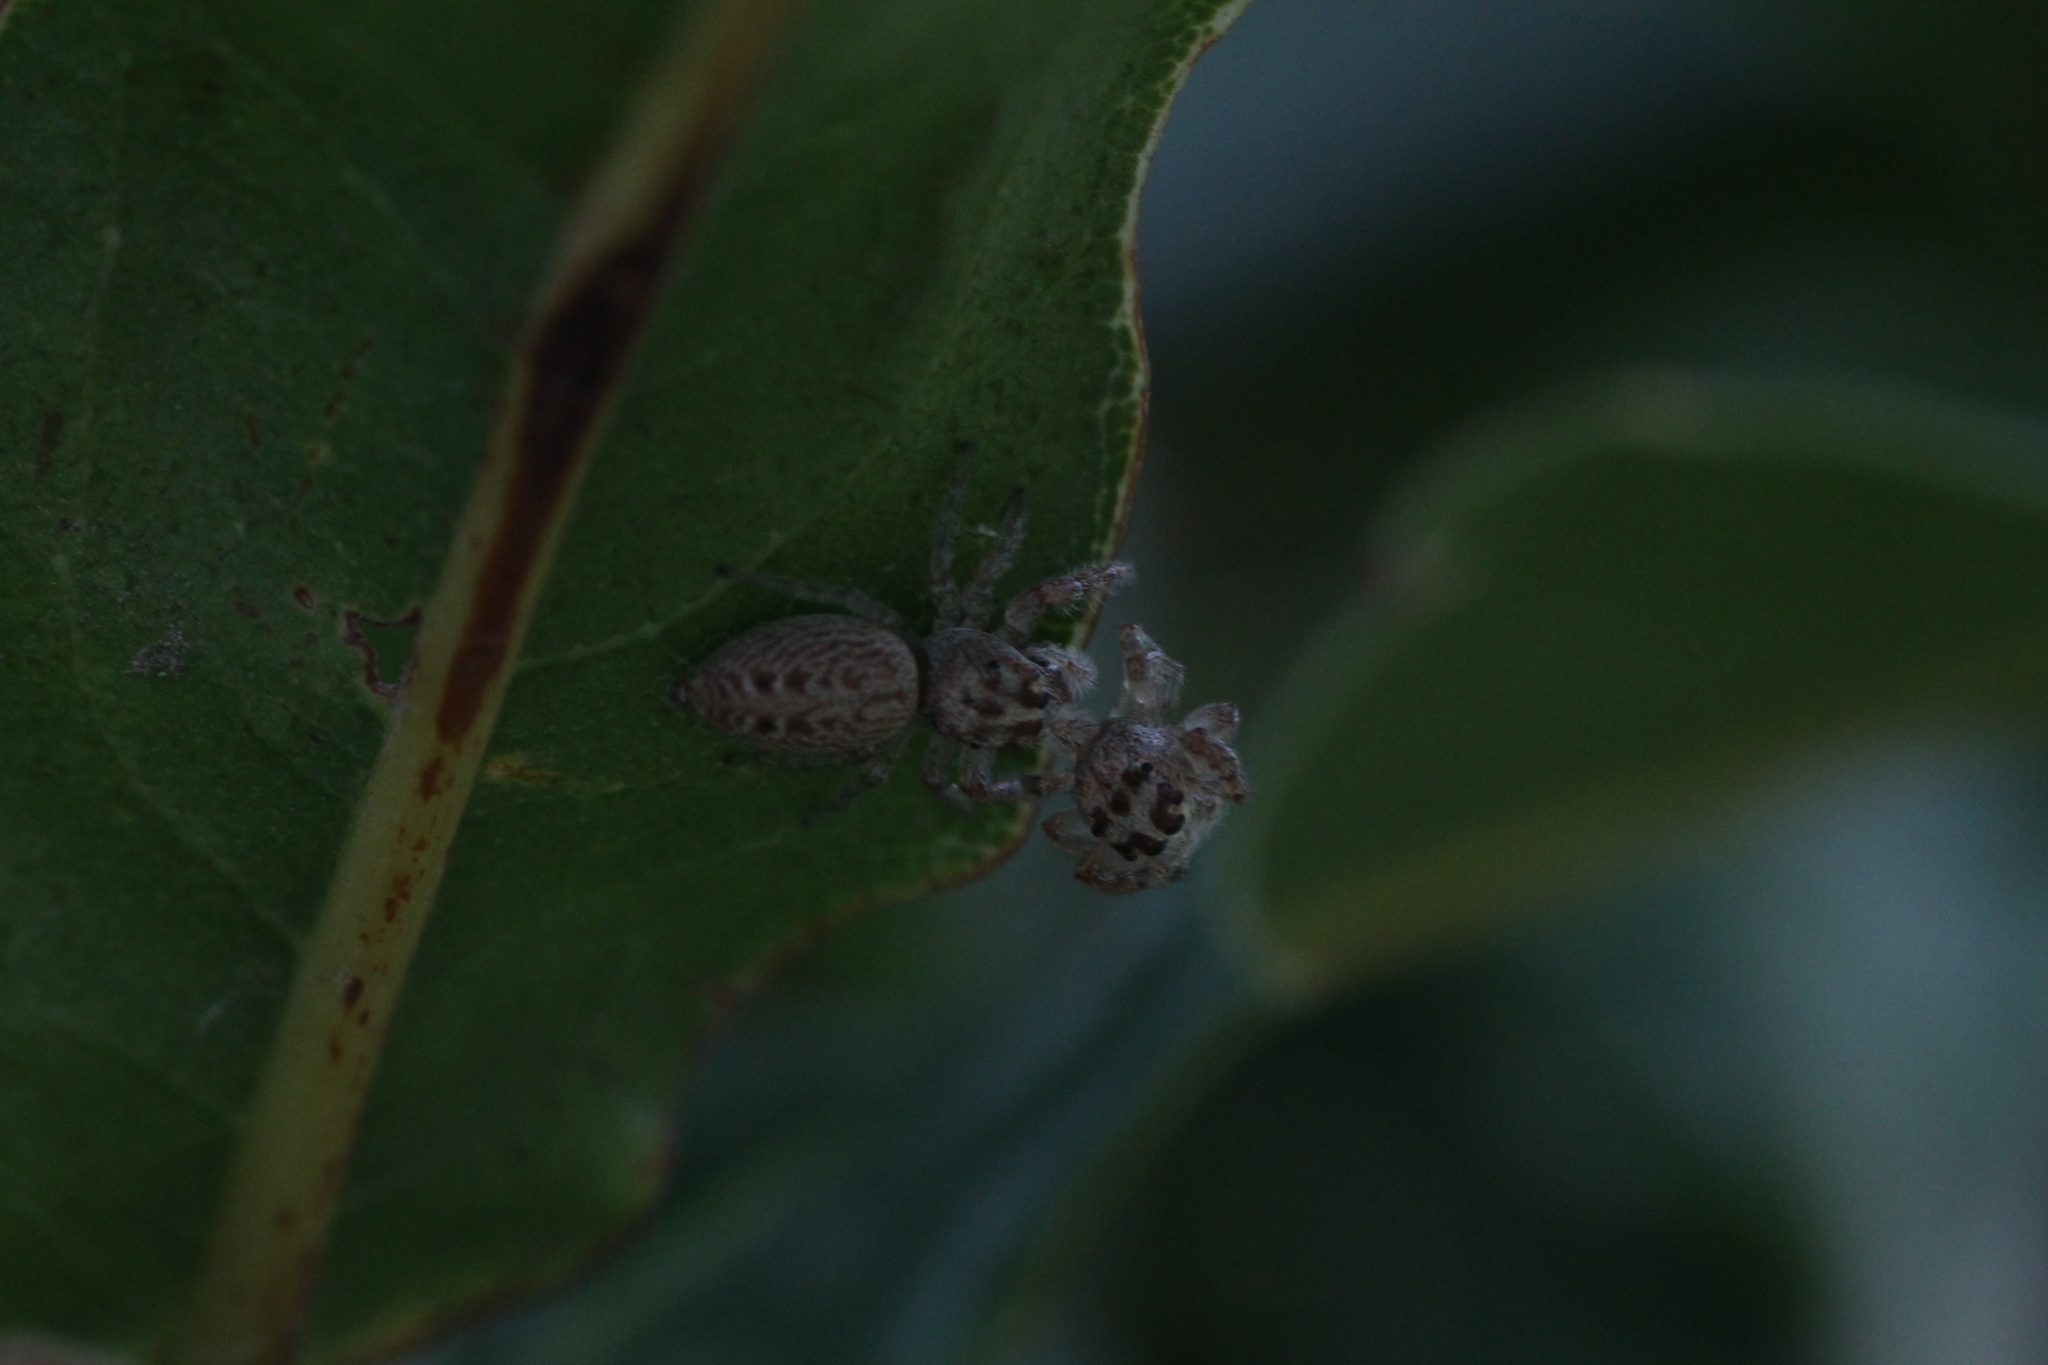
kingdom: Animalia
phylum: Arthropoda
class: Arachnida
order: Araneae
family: Salticidae
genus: Opisthoncus
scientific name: Opisthoncus polyphemus
